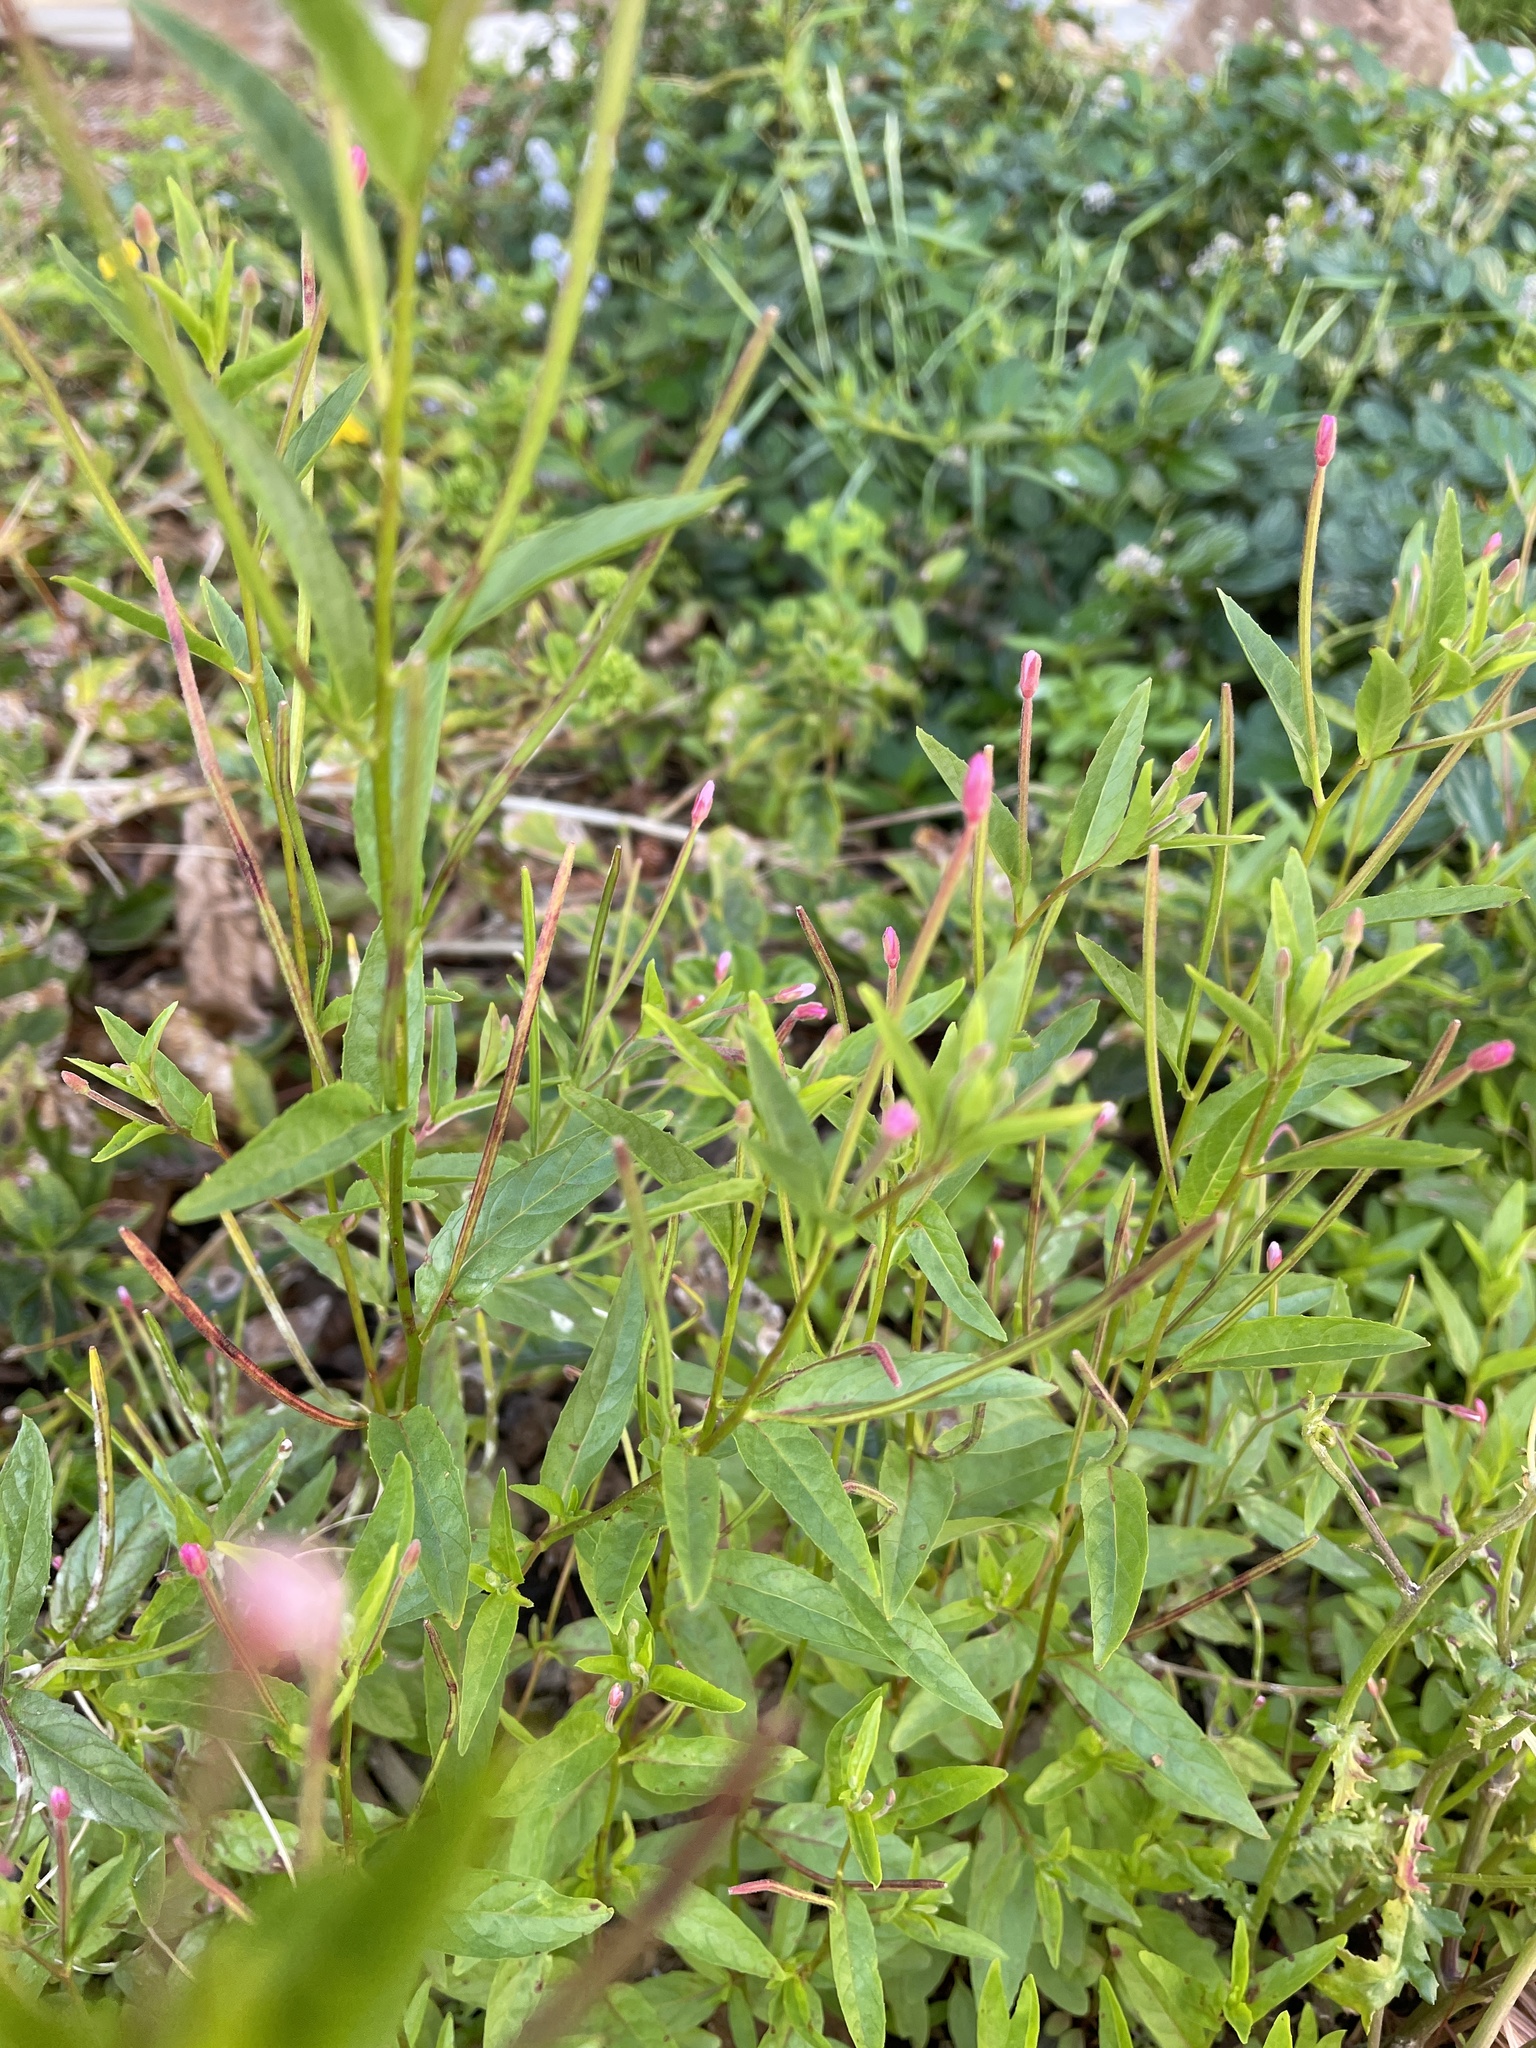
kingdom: Plantae
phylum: Tracheophyta
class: Magnoliopsida
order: Myrtales
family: Onagraceae
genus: Epilobium
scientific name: Epilobium ciliatum
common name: American willowherb
